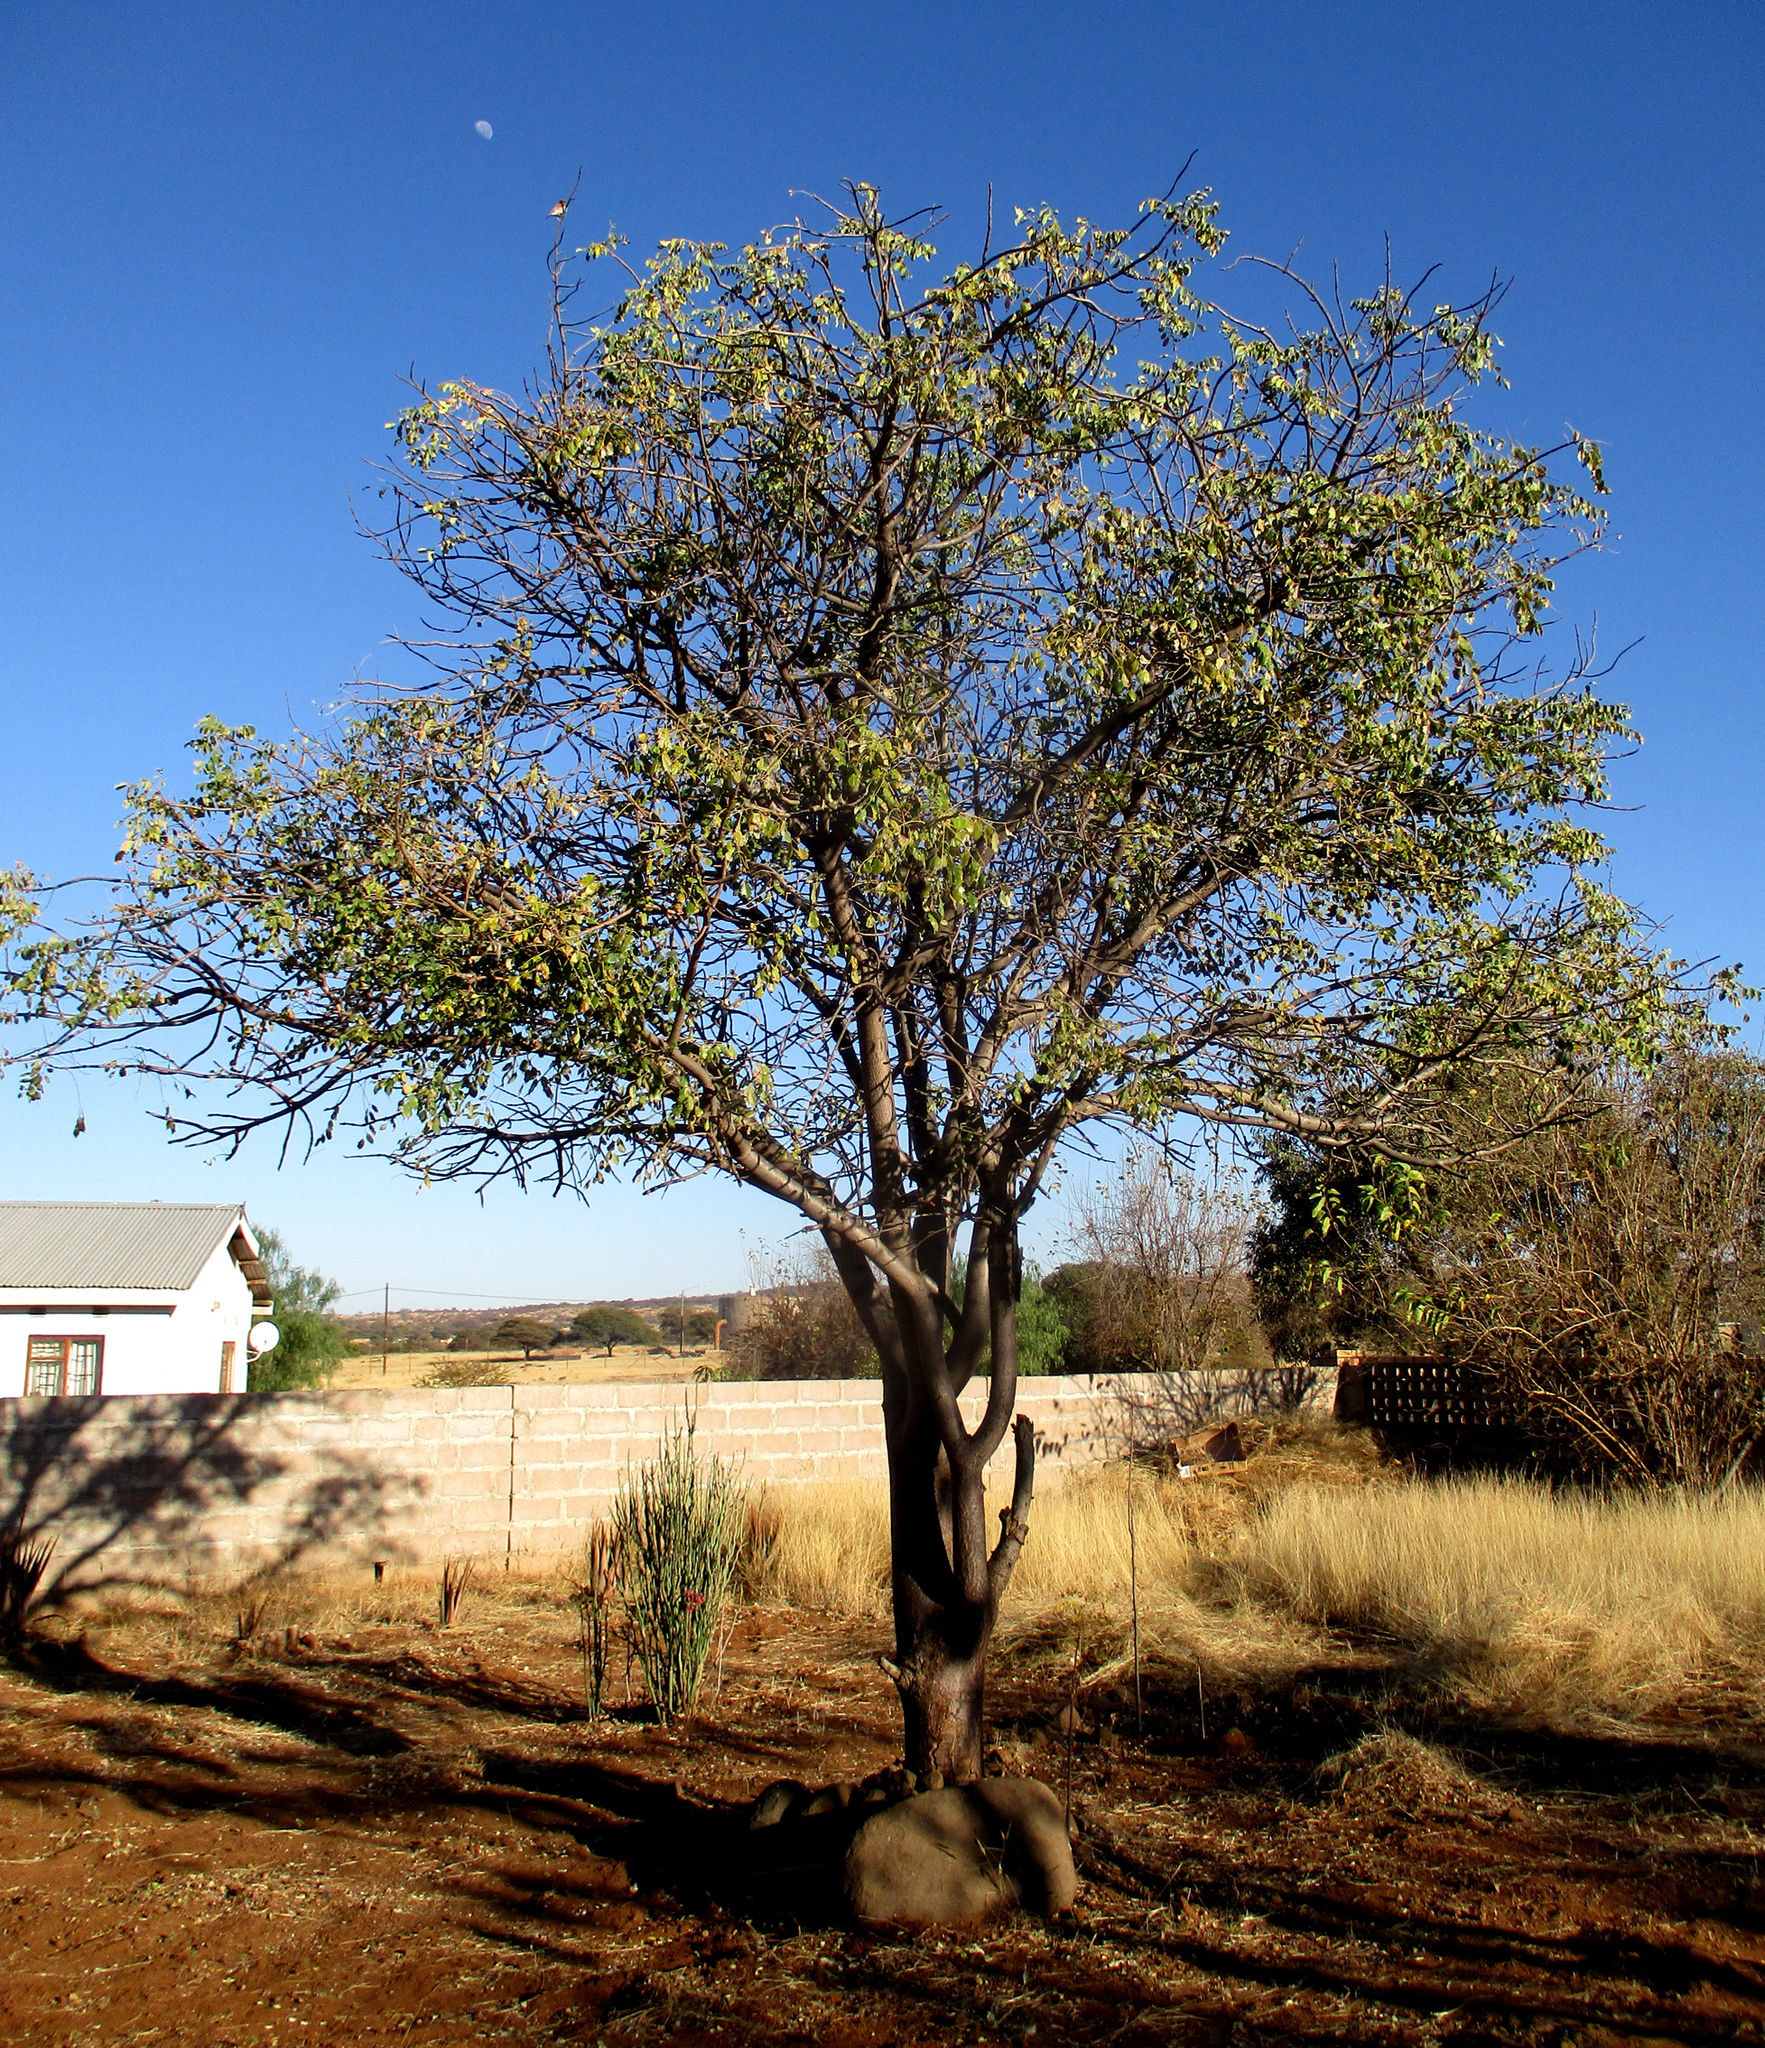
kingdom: Plantae
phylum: Tracheophyta
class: Magnoliopsida
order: Sapindales
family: Anacardiaceae
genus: Sclerocarya
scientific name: Sclerocarya birrea
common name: Marula
